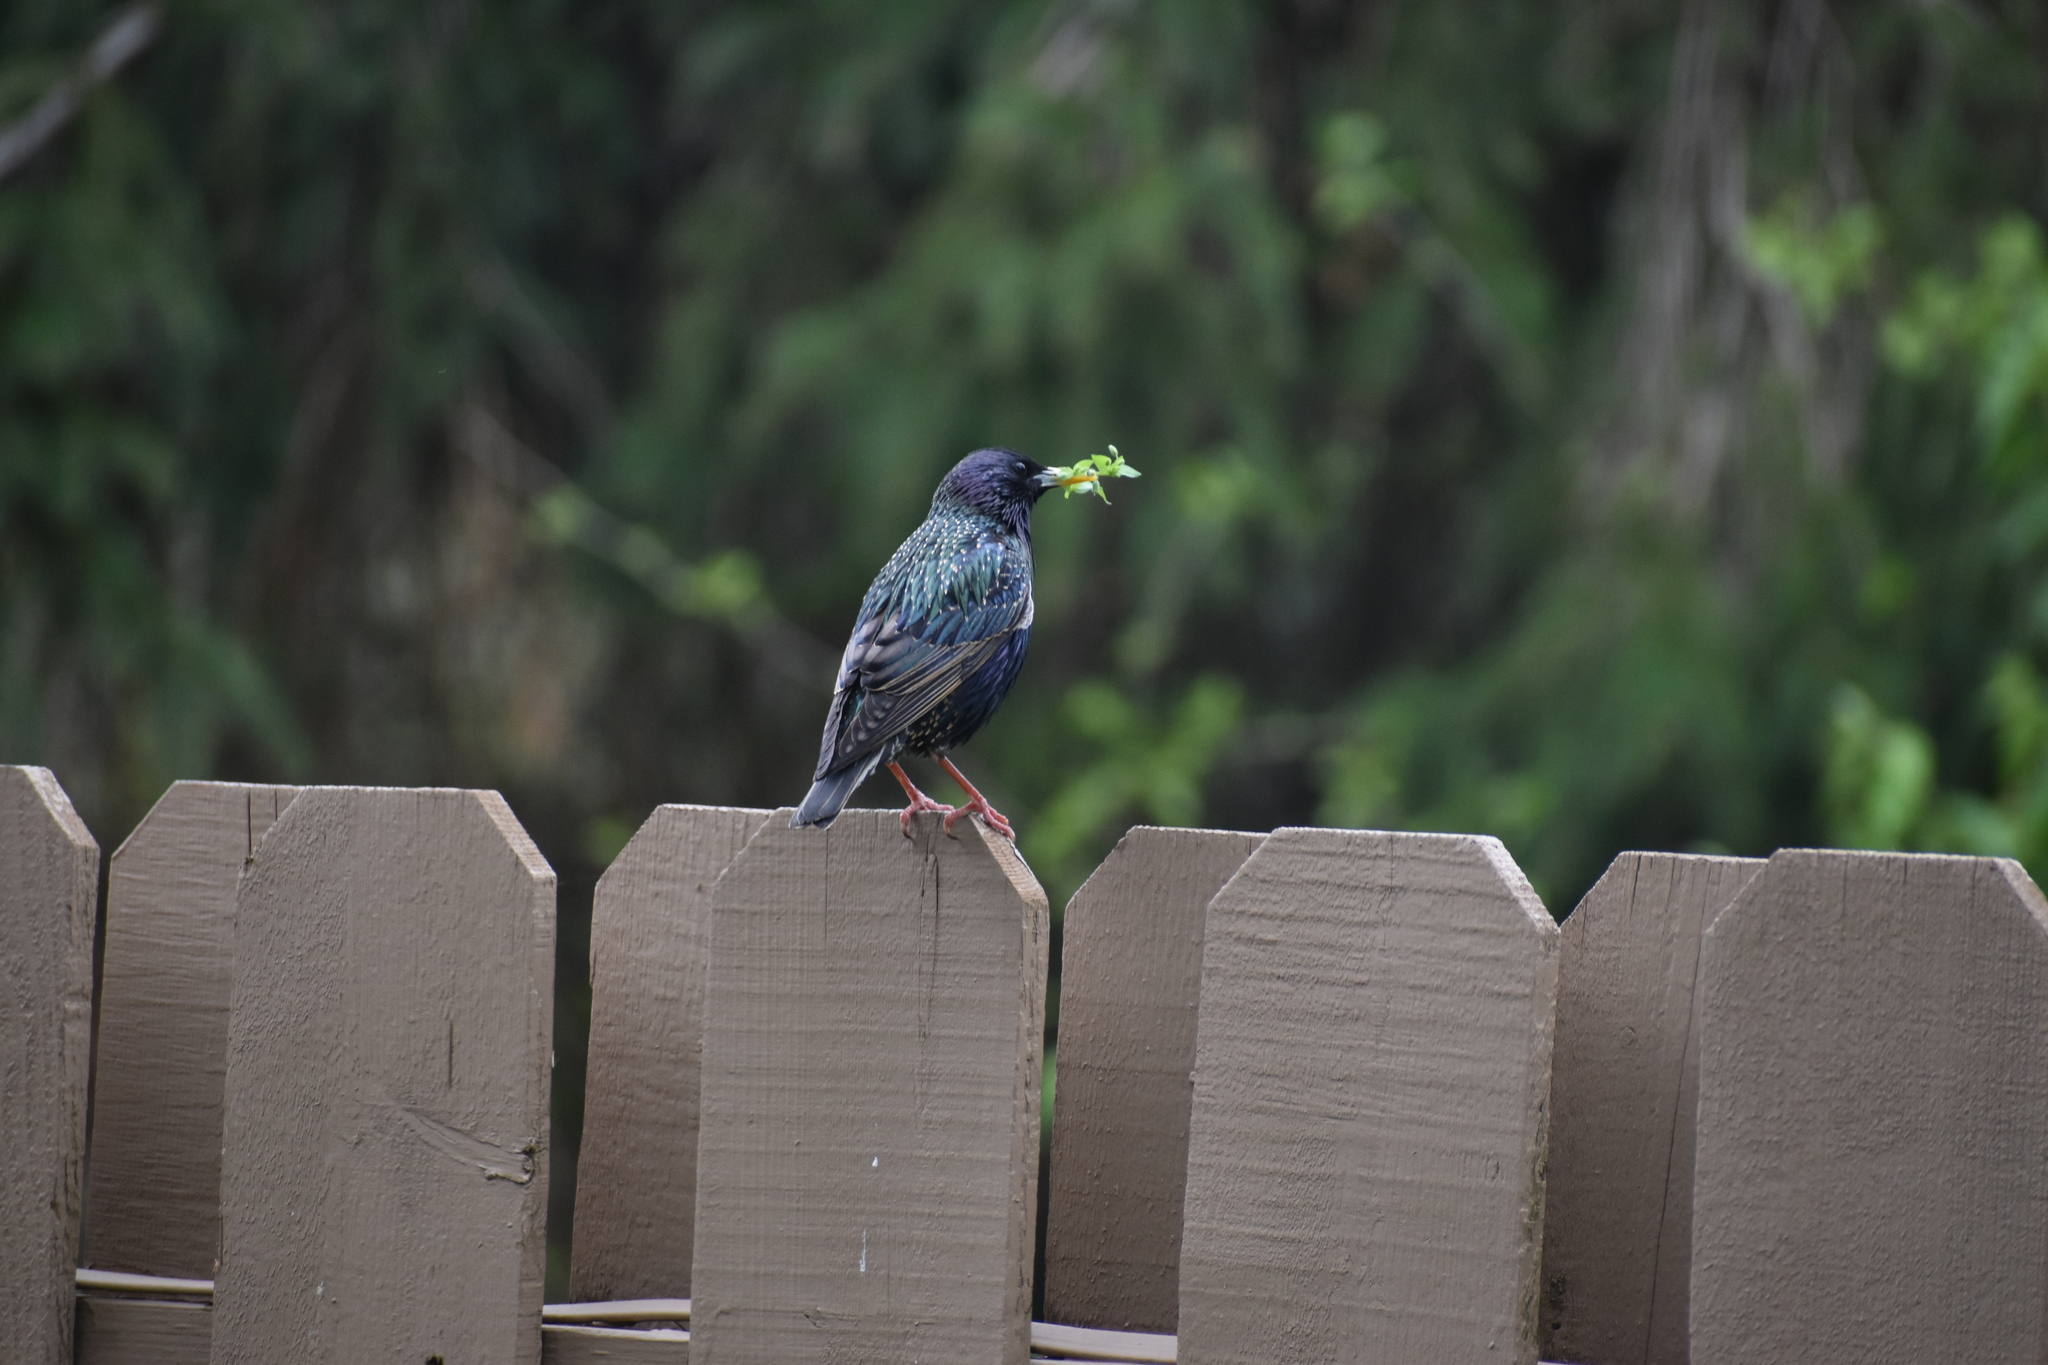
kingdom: Animalia
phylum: Chordata
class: Aves
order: Passeriformes
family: Sturnidae
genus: Sturnus
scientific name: Sturnus vulgaris
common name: Common starling
